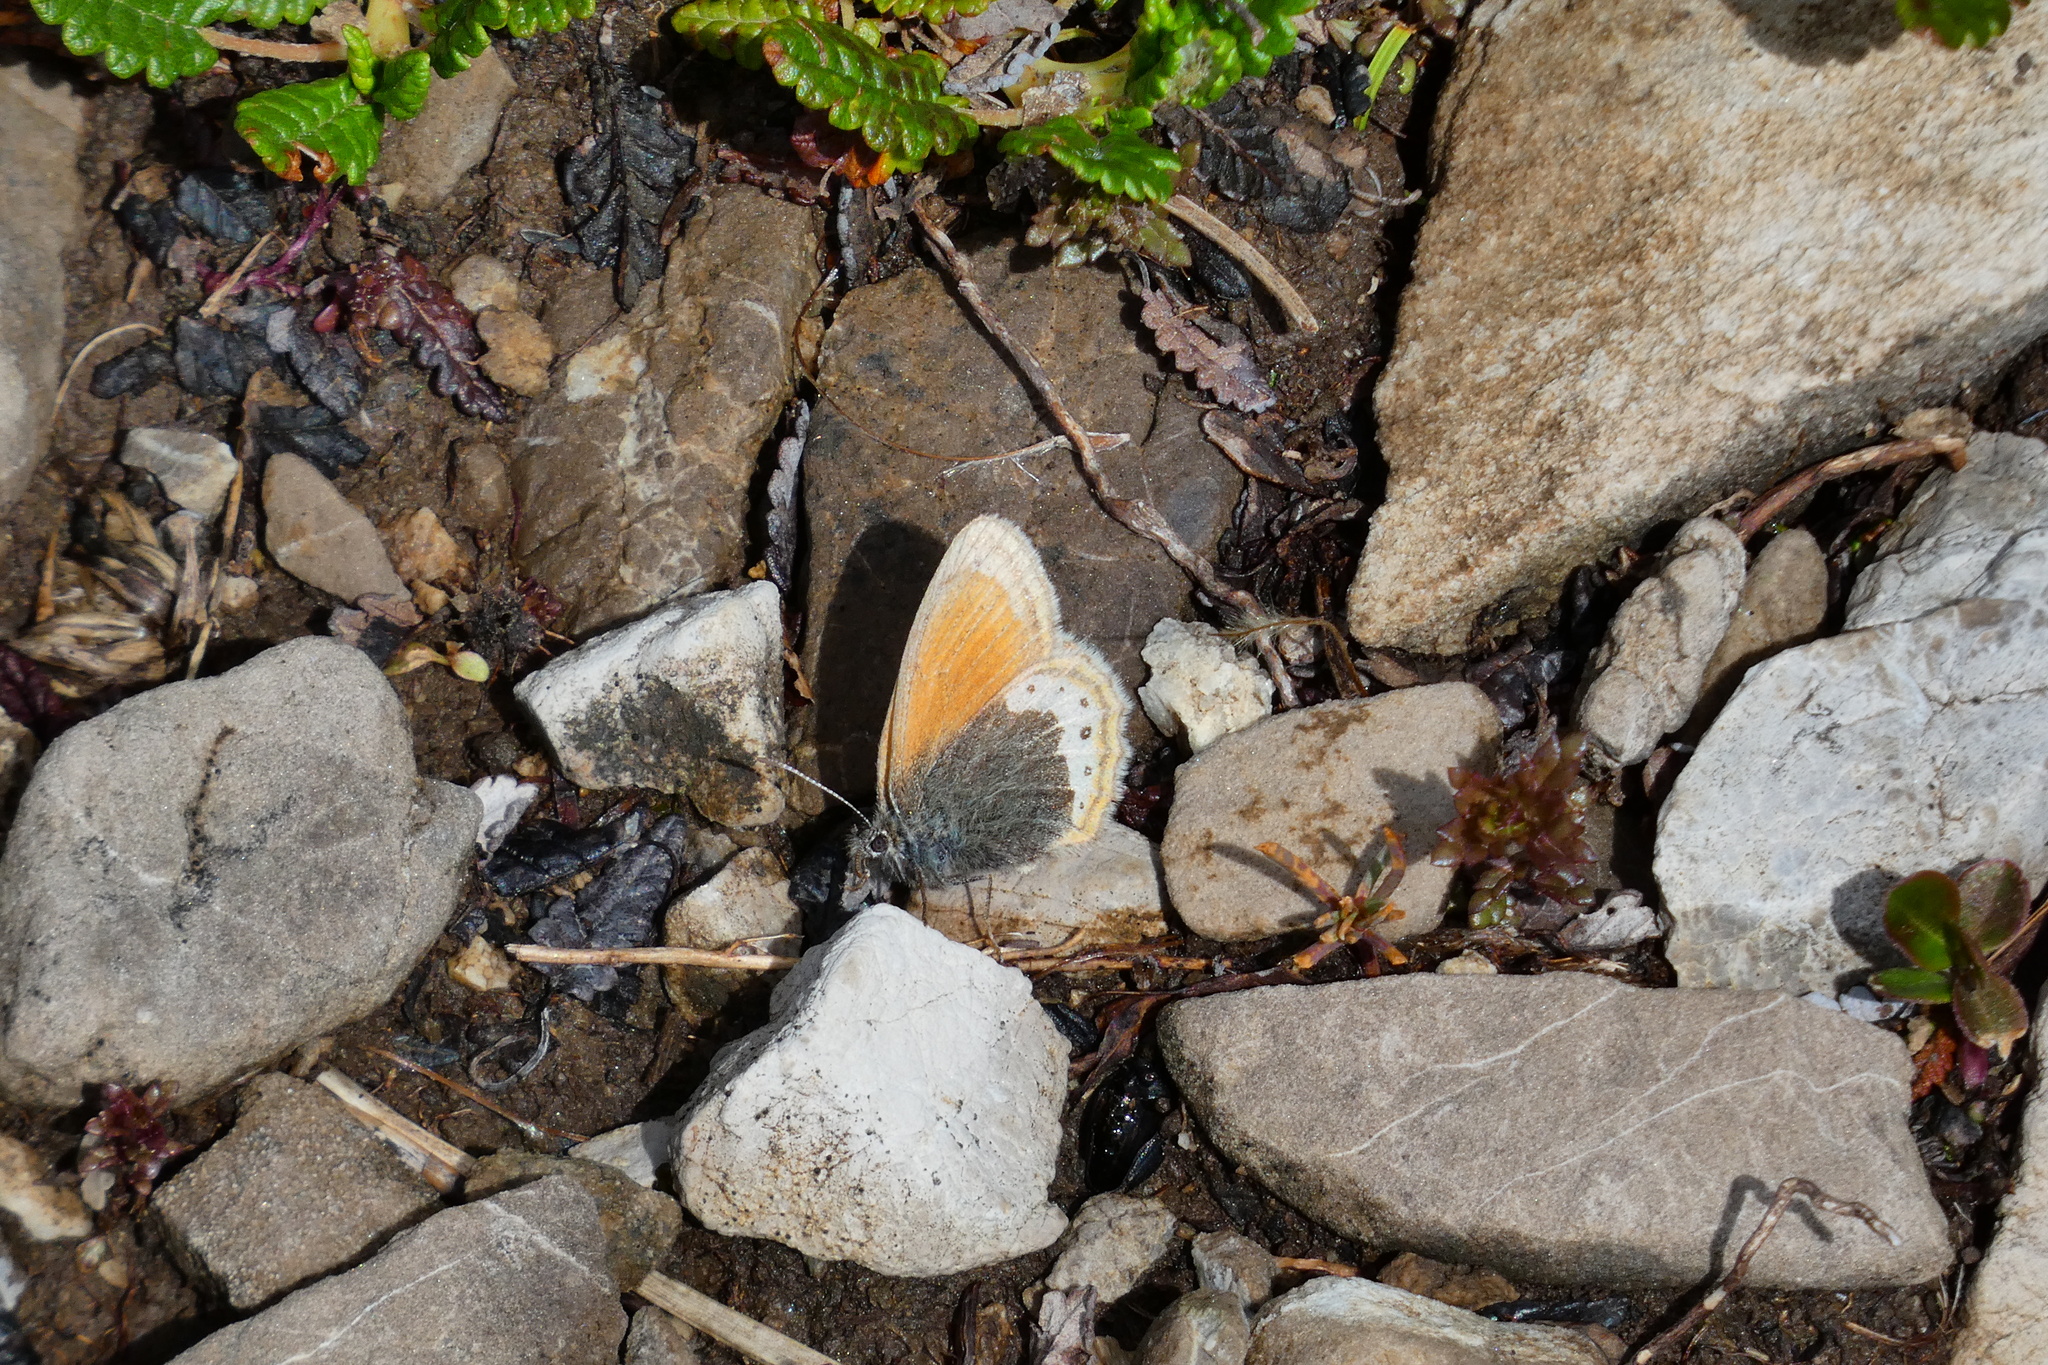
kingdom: Animalia
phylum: Arthropoda
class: Insecta
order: Lepidoptera
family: Nymphalidae
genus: Coenonympha
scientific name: Coenonympha
